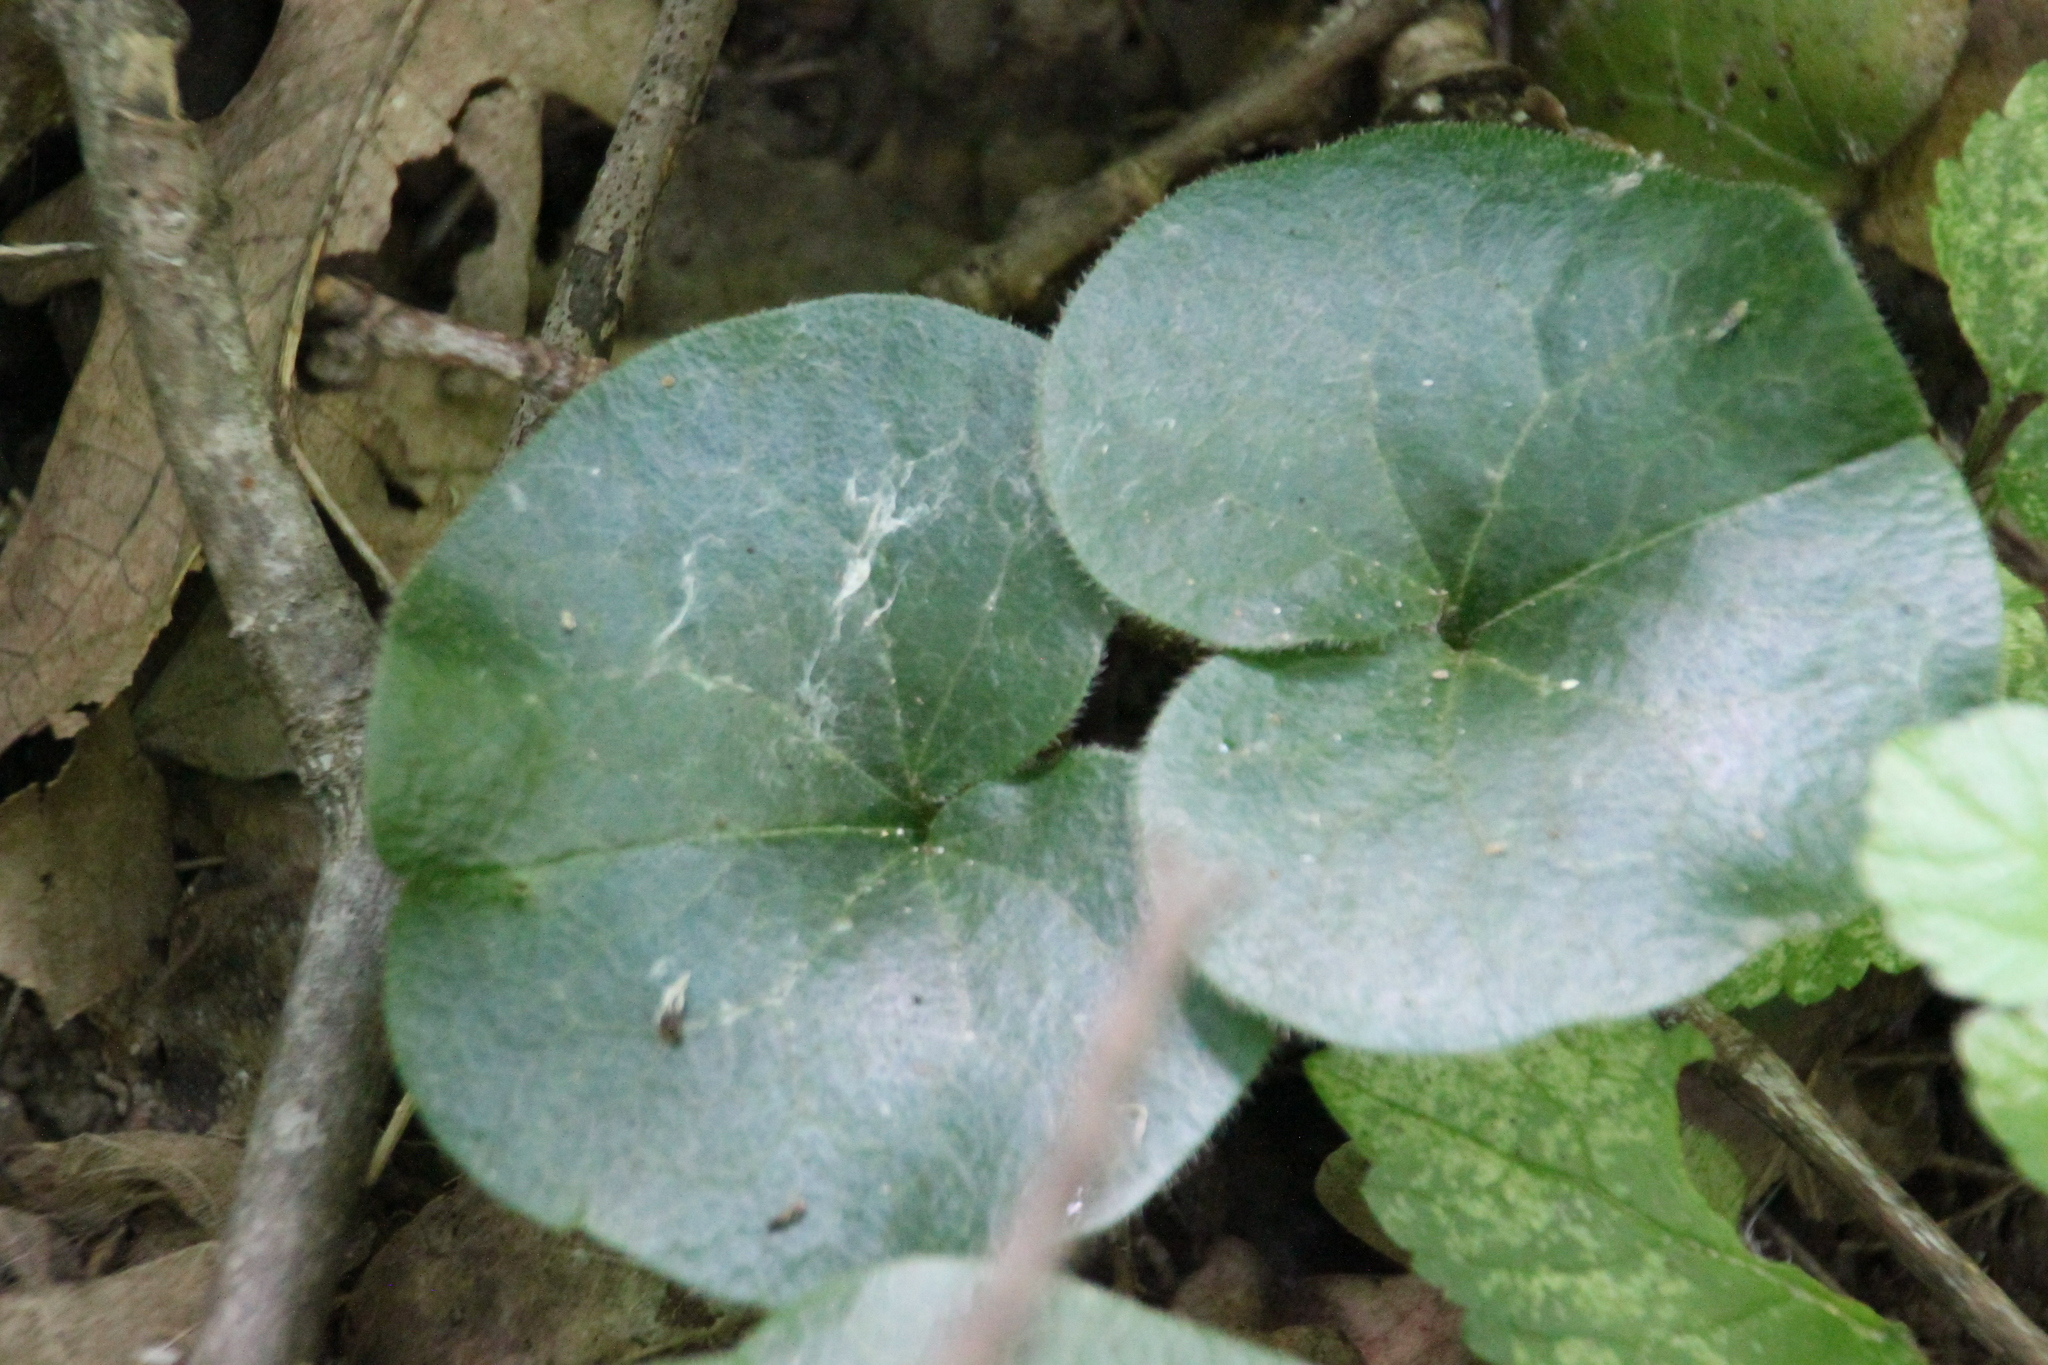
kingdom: Plantae
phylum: Tracheophyta
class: Magnoliopsida
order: Piperales
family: Aristolochiaceae
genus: Asarum
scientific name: Asarum europaeum
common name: Asarabacca
